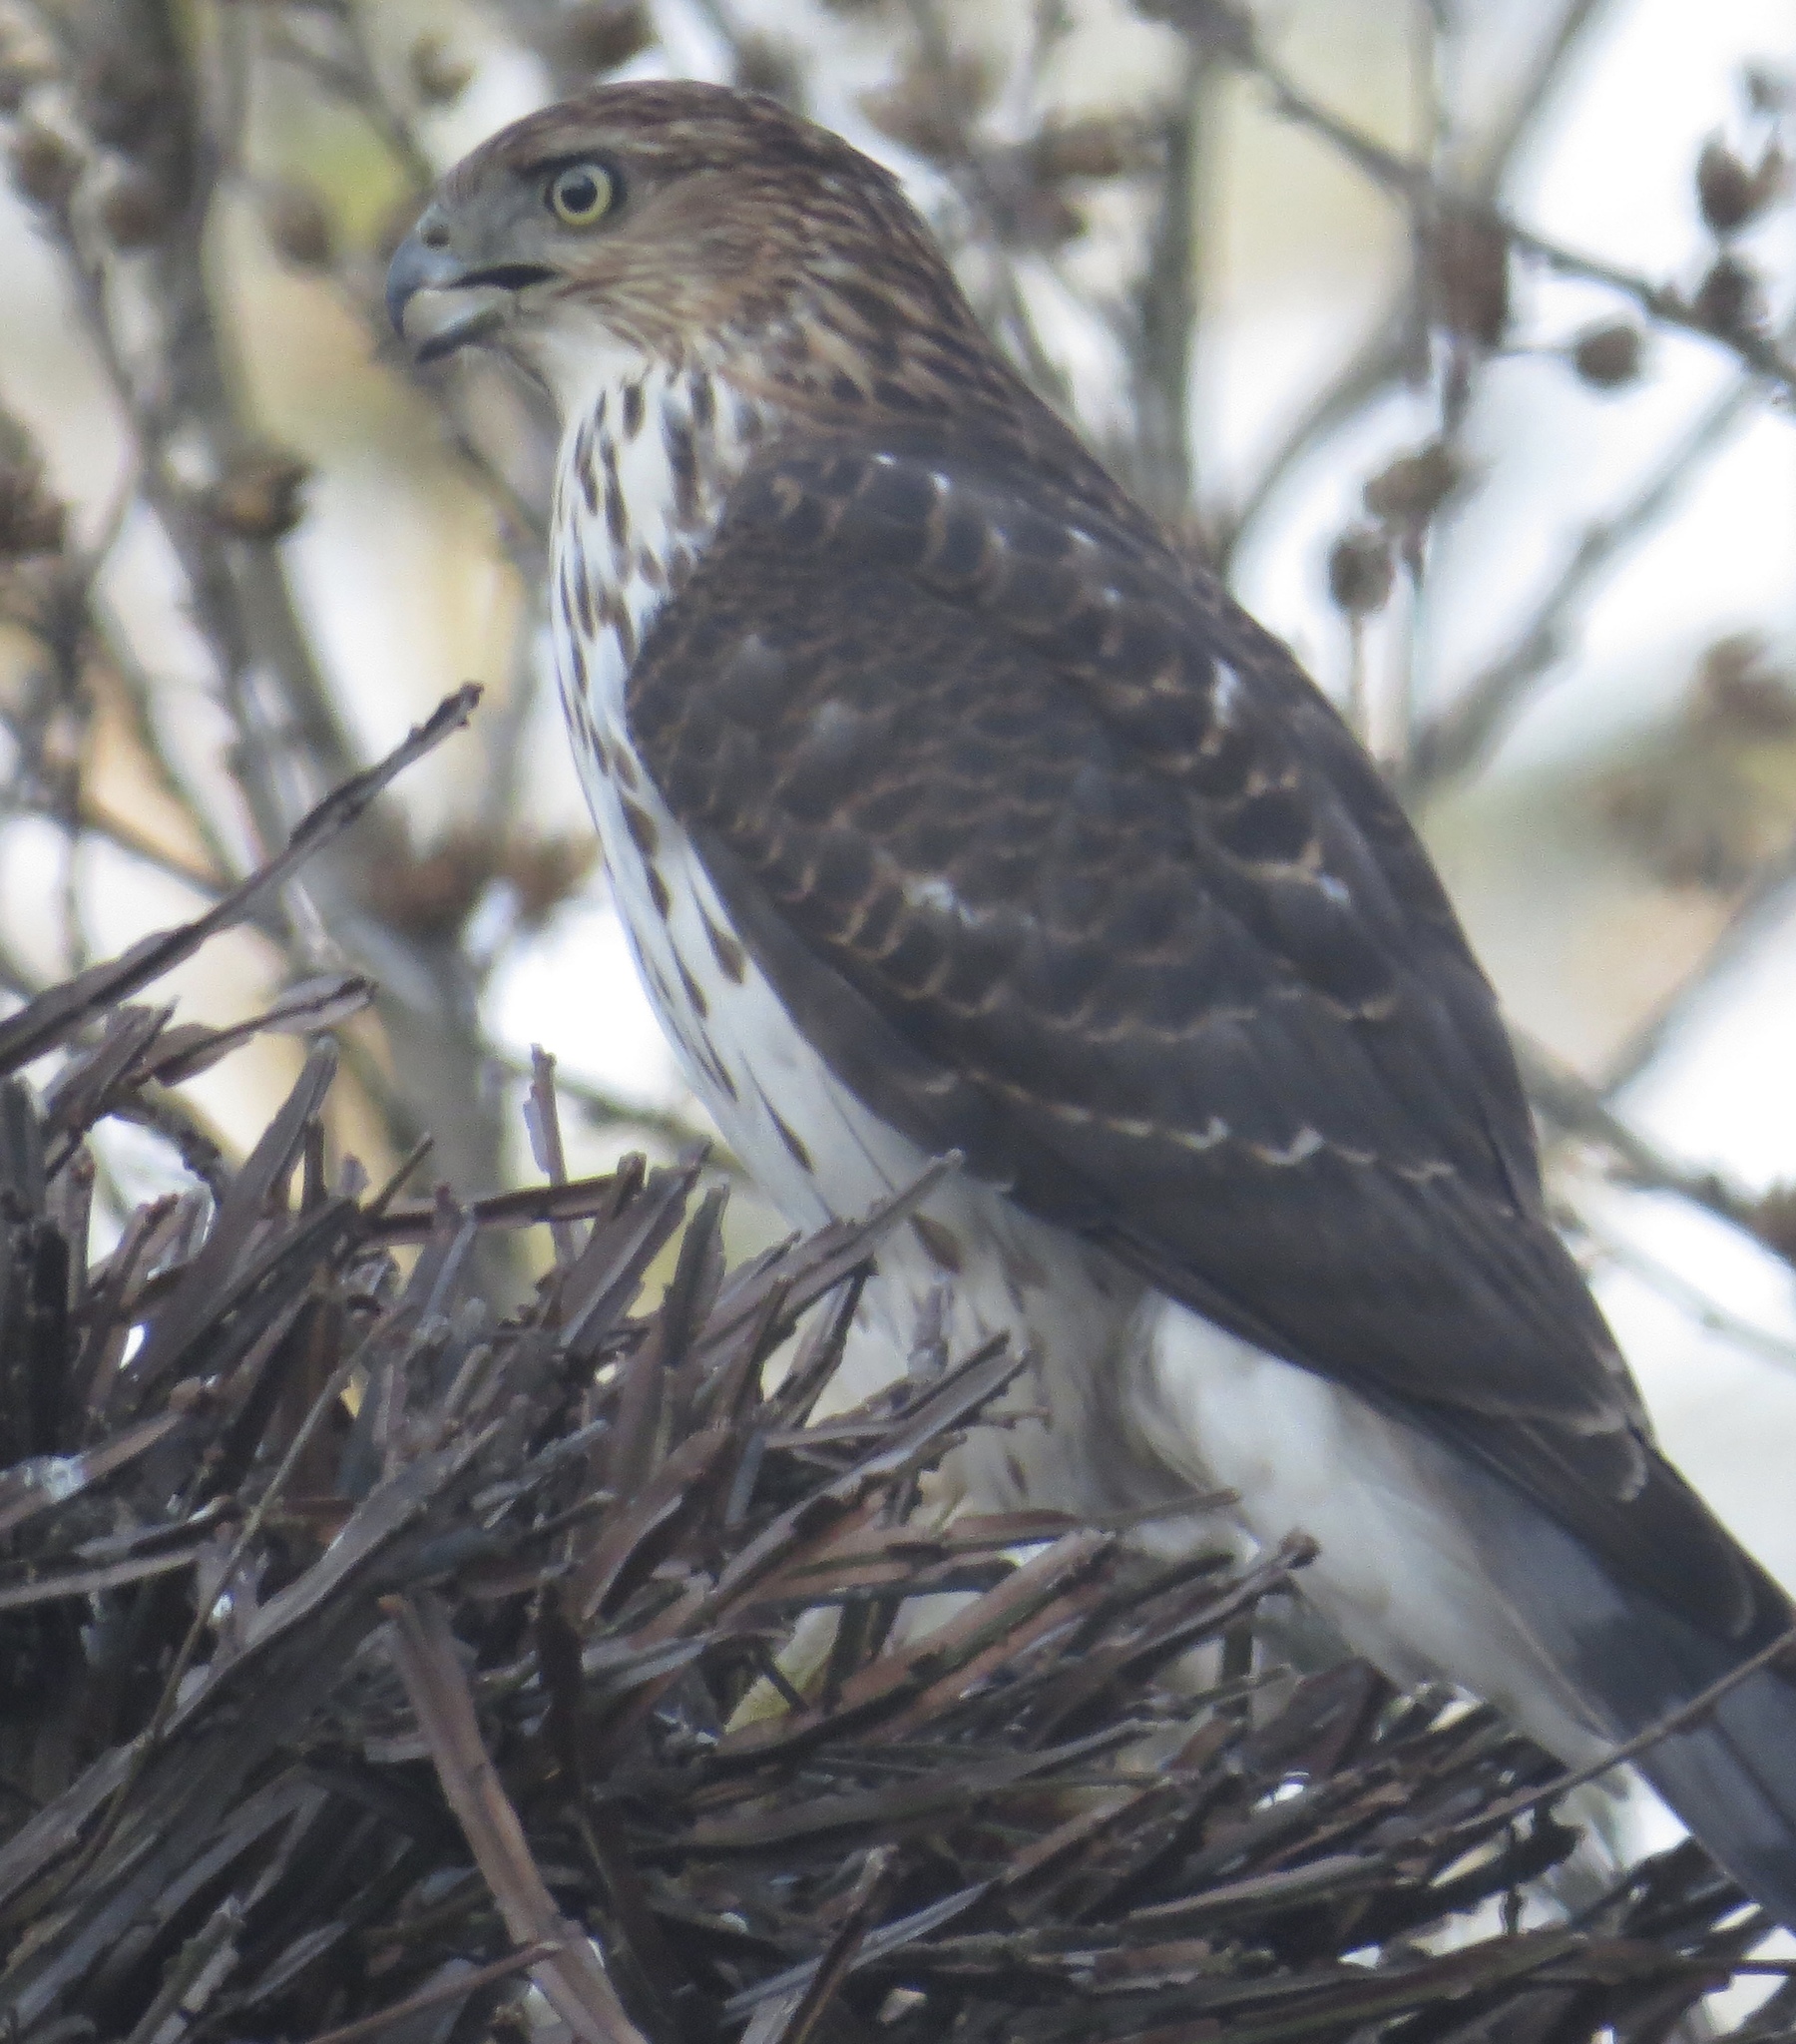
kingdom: Animalia
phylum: Chordata
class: Aves
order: Accipitriformes
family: Accipitridae
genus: Accipiter
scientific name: Accipiter cooperii
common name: Cooper's hawk
